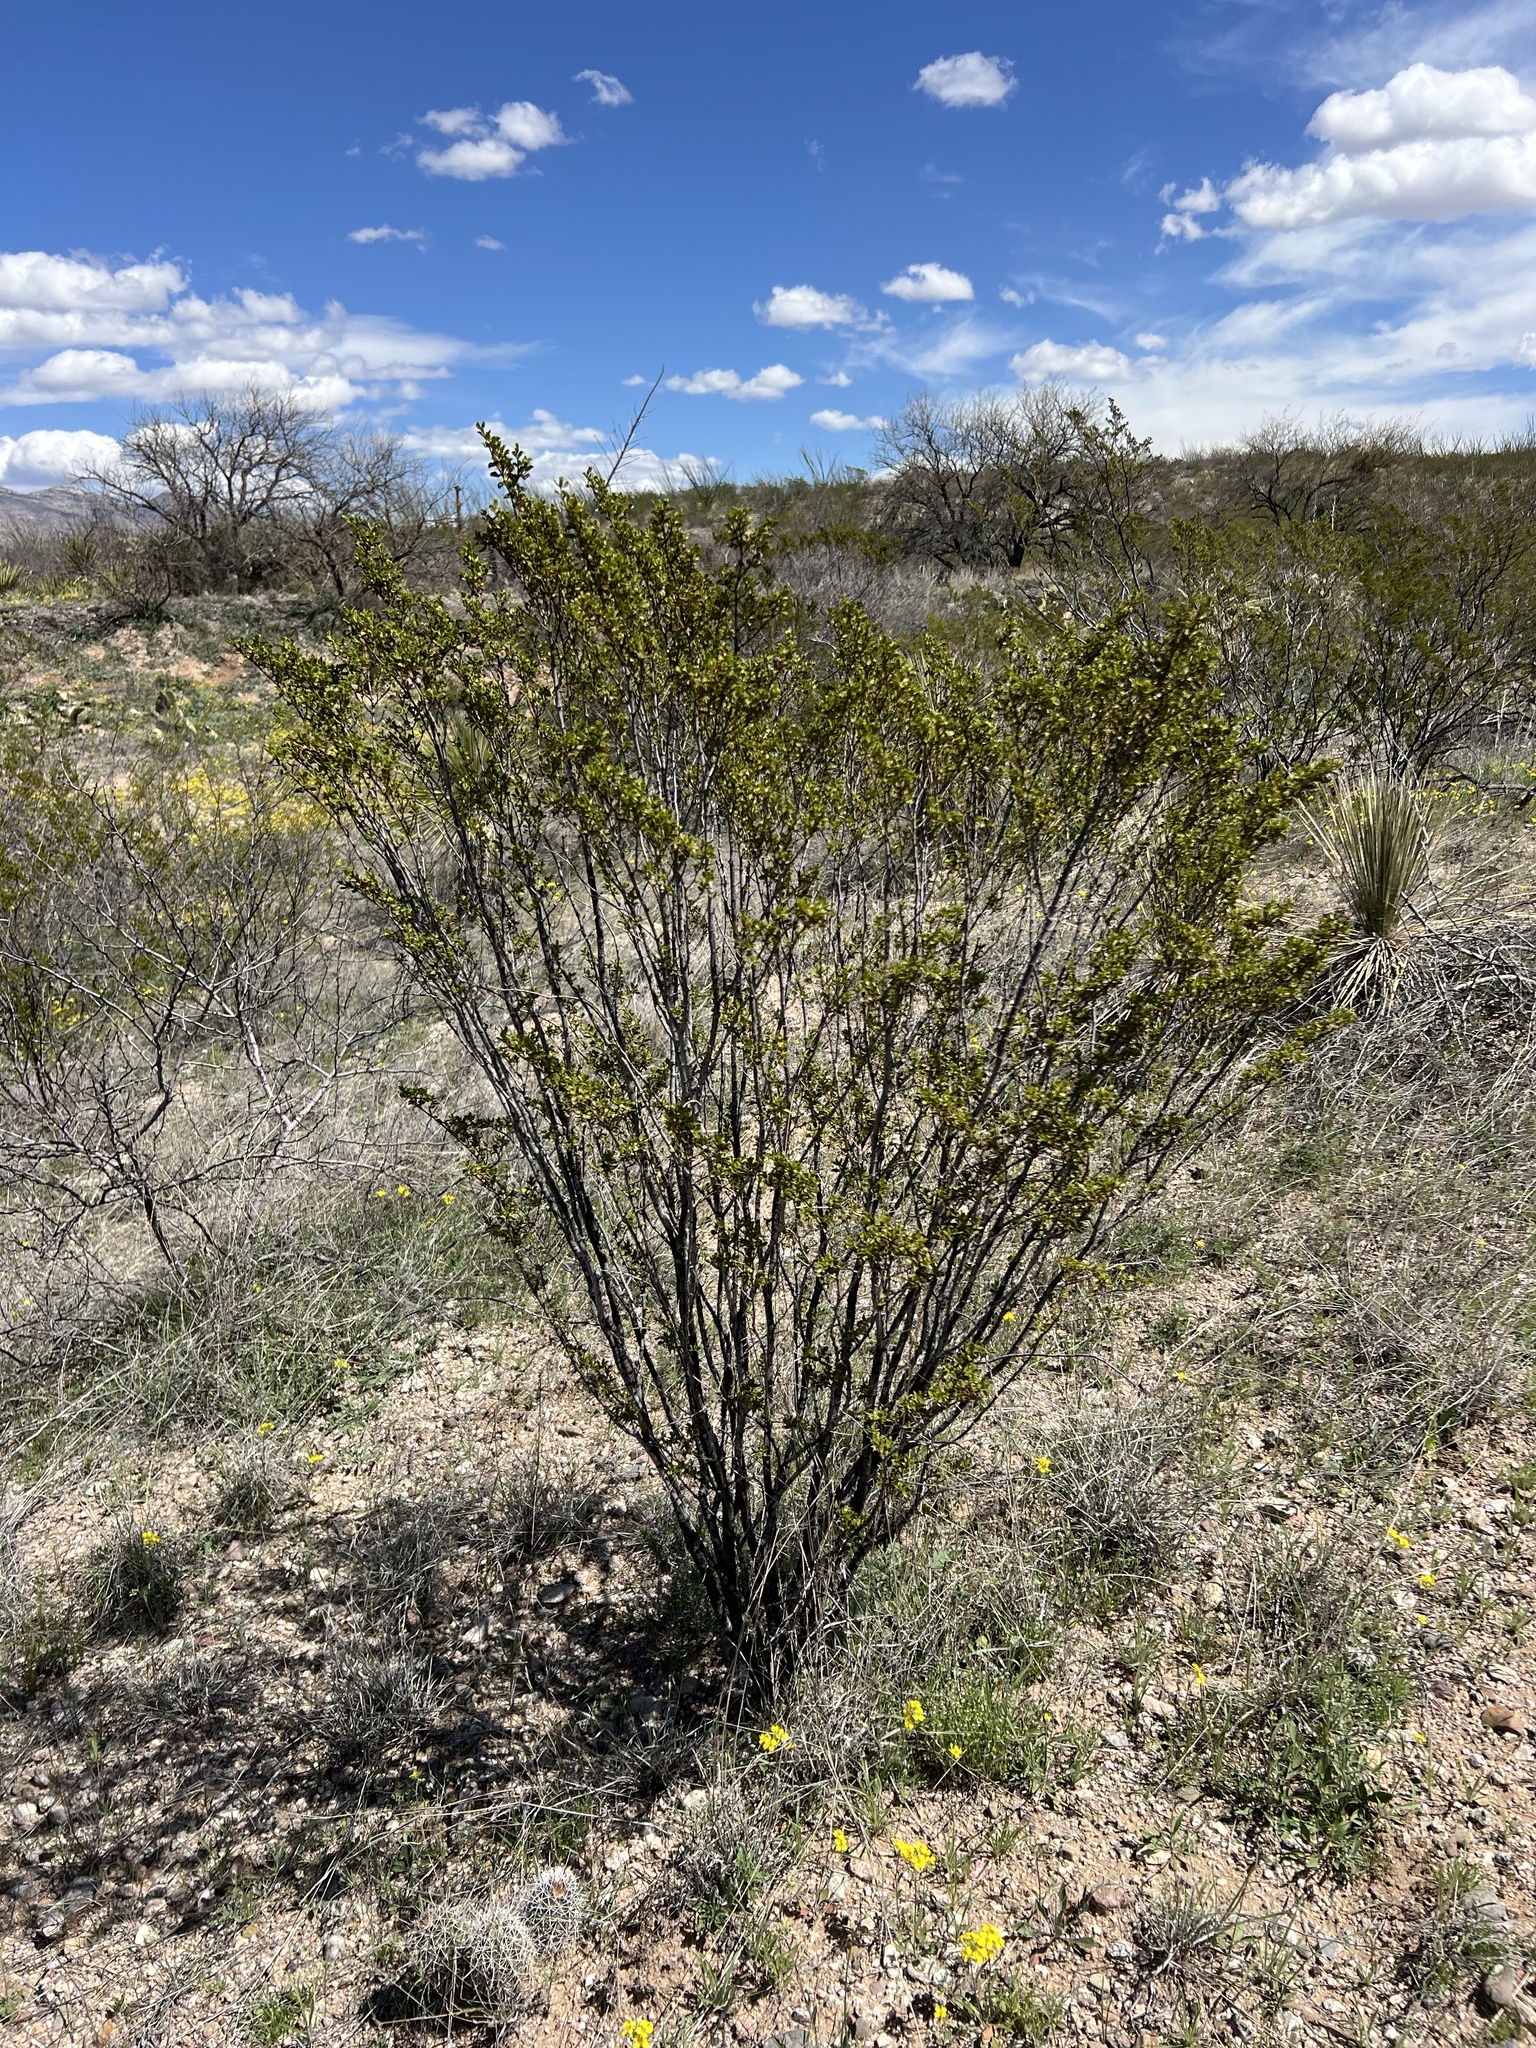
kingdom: Plantae
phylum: Tracheophyta
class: Magnoliopsida
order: Zygophyllales
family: Zygophyllaceae
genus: Larrea
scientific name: Larrea tridentata
